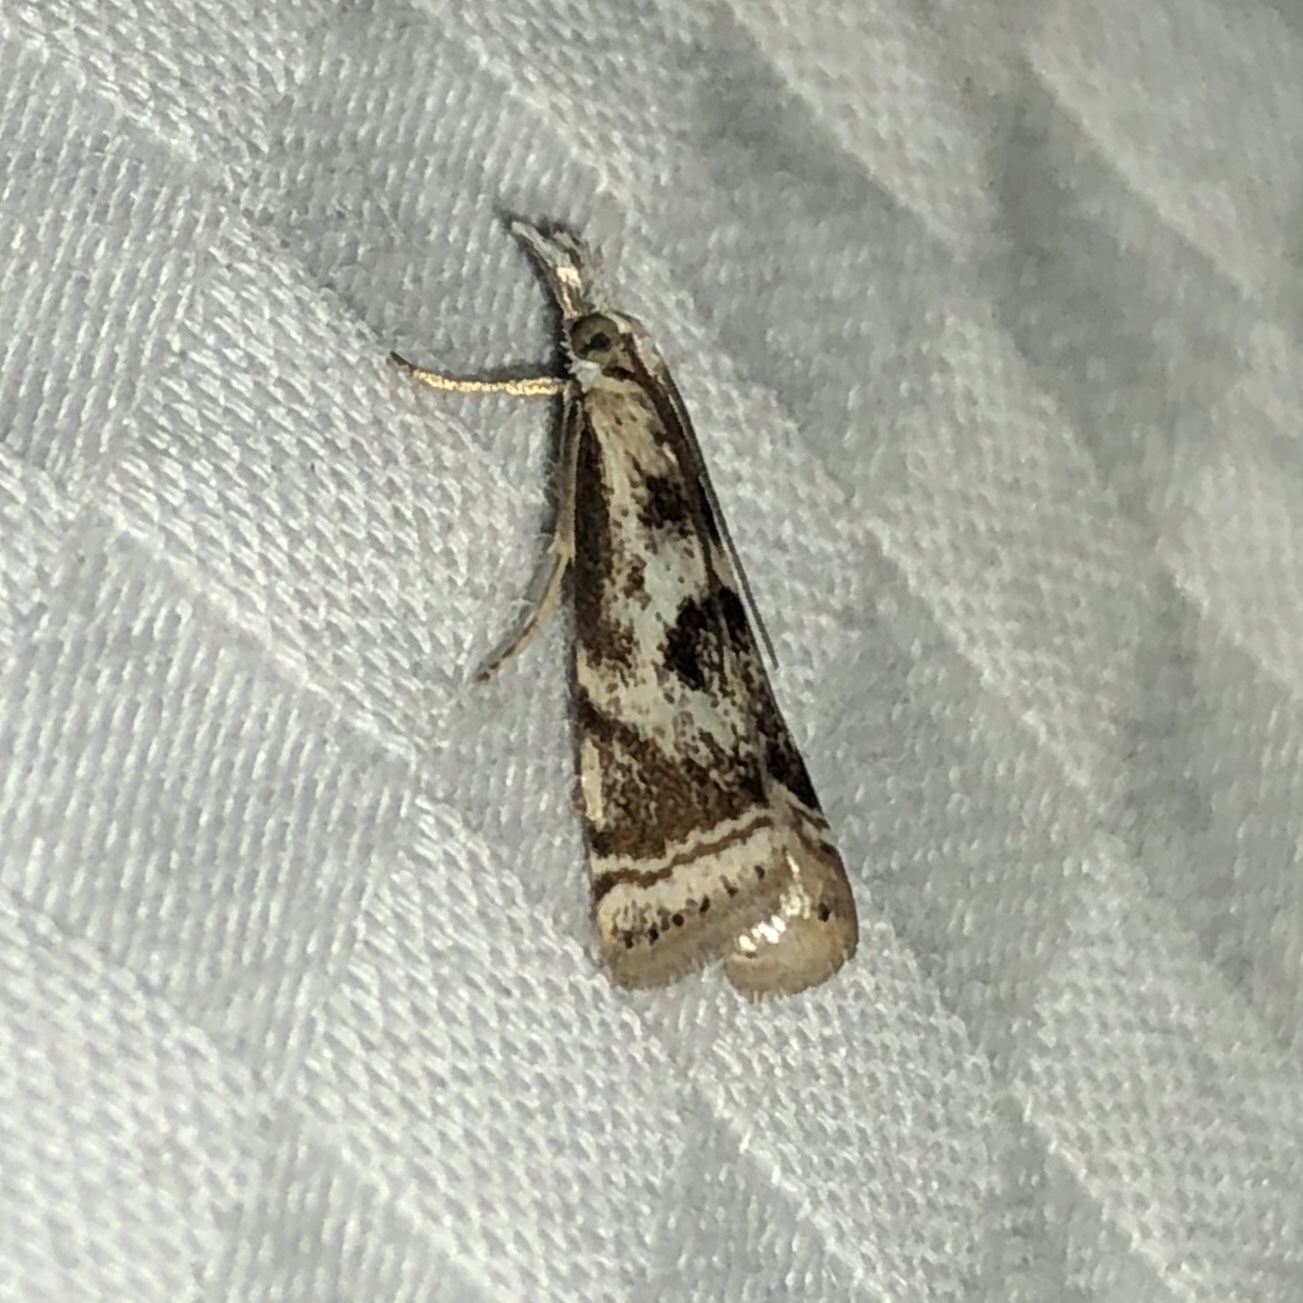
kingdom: Animalia
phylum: Arthropoda
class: Insecta
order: Lepidoptera
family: Crambidae
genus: Microcrambus
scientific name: Microcrambus elegans
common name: Elegant grass-veneer
